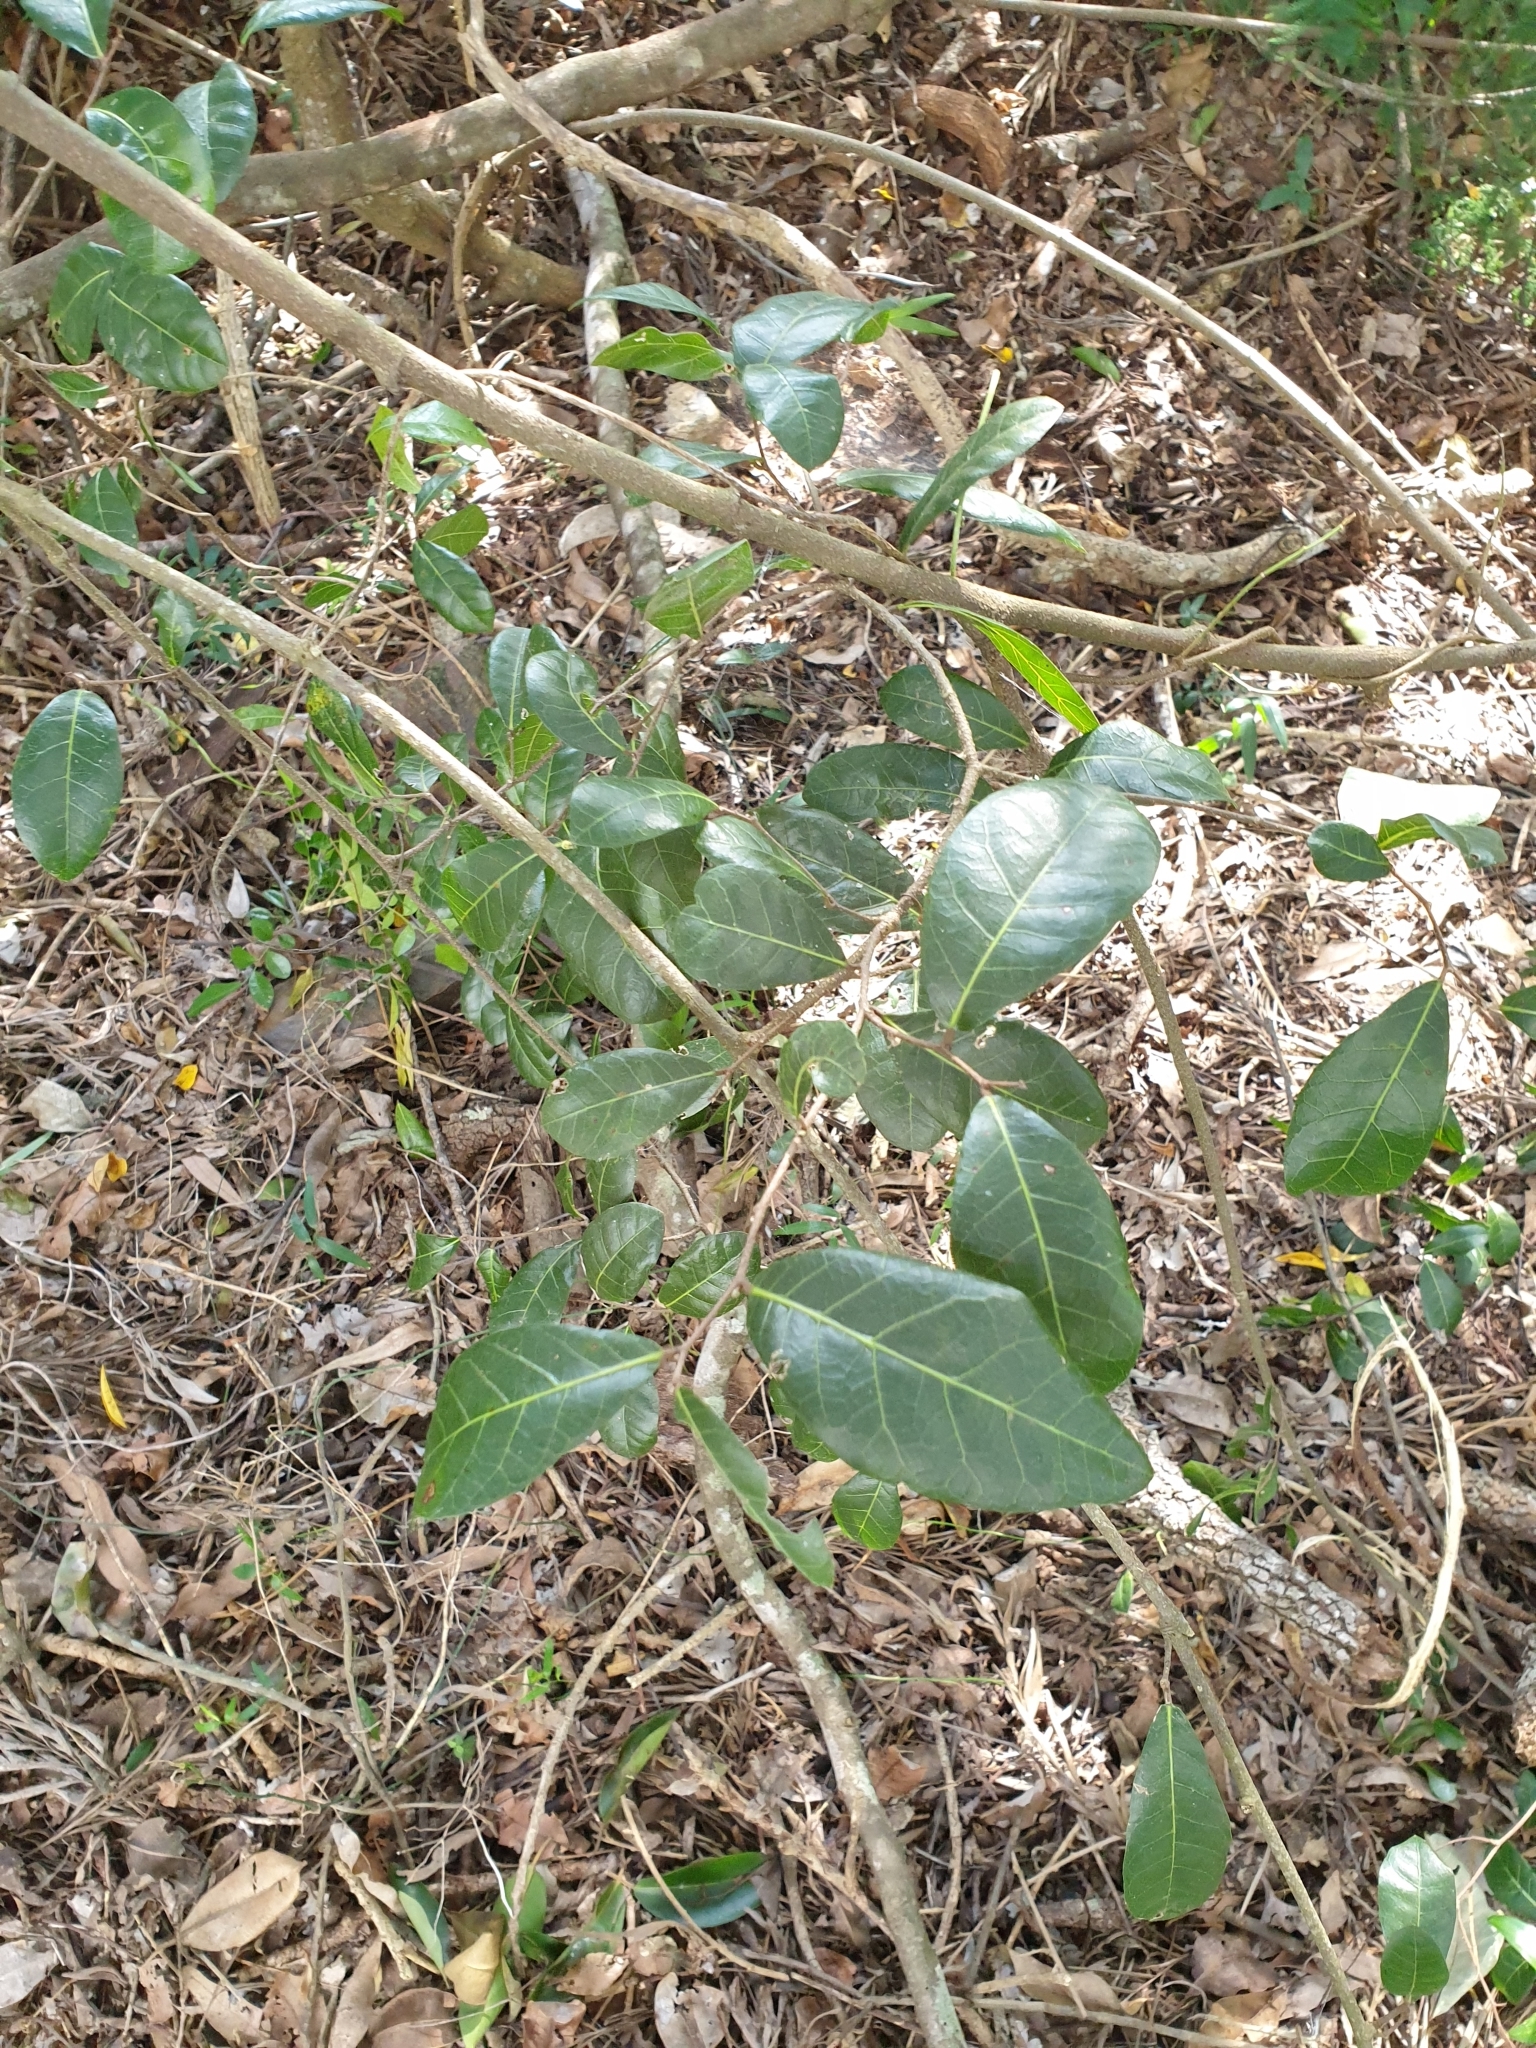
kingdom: Plantae
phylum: Tracheophyta
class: Magnoliopsida
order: Rosales
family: Moraceae
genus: Malaisia
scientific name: Malaisia scandens
